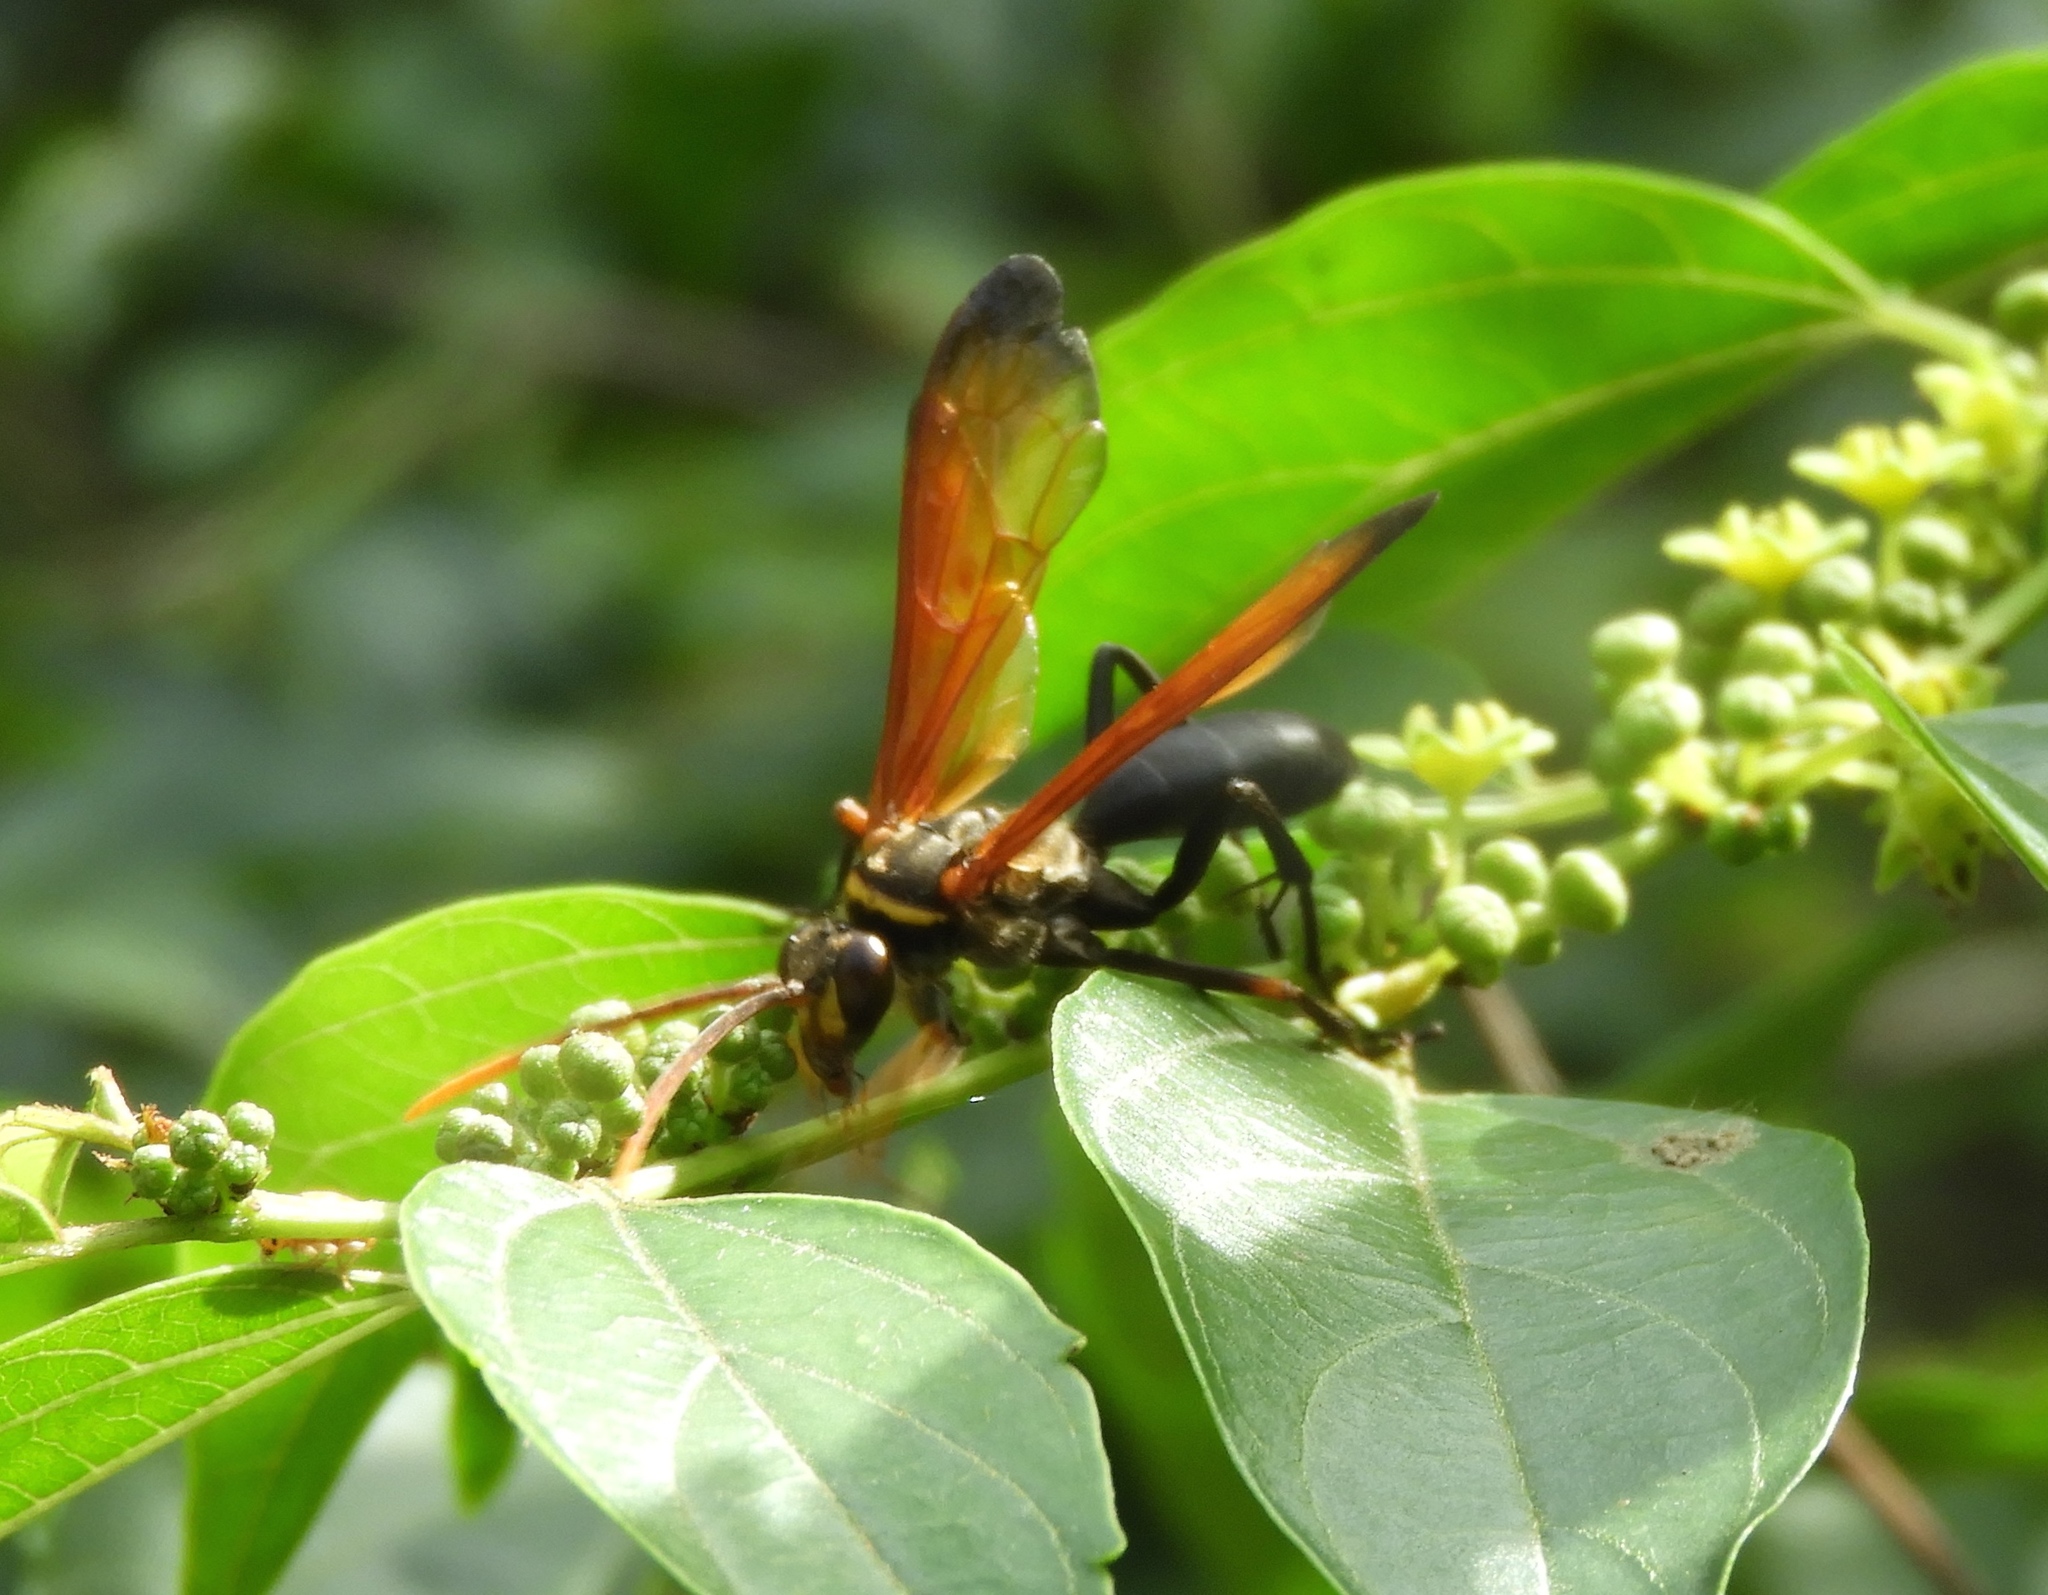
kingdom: Animalia
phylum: Arthropoda
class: Insecta
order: Hymenoptera
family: Pompilidae
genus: Hemipepsis
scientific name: Hemipepsis
